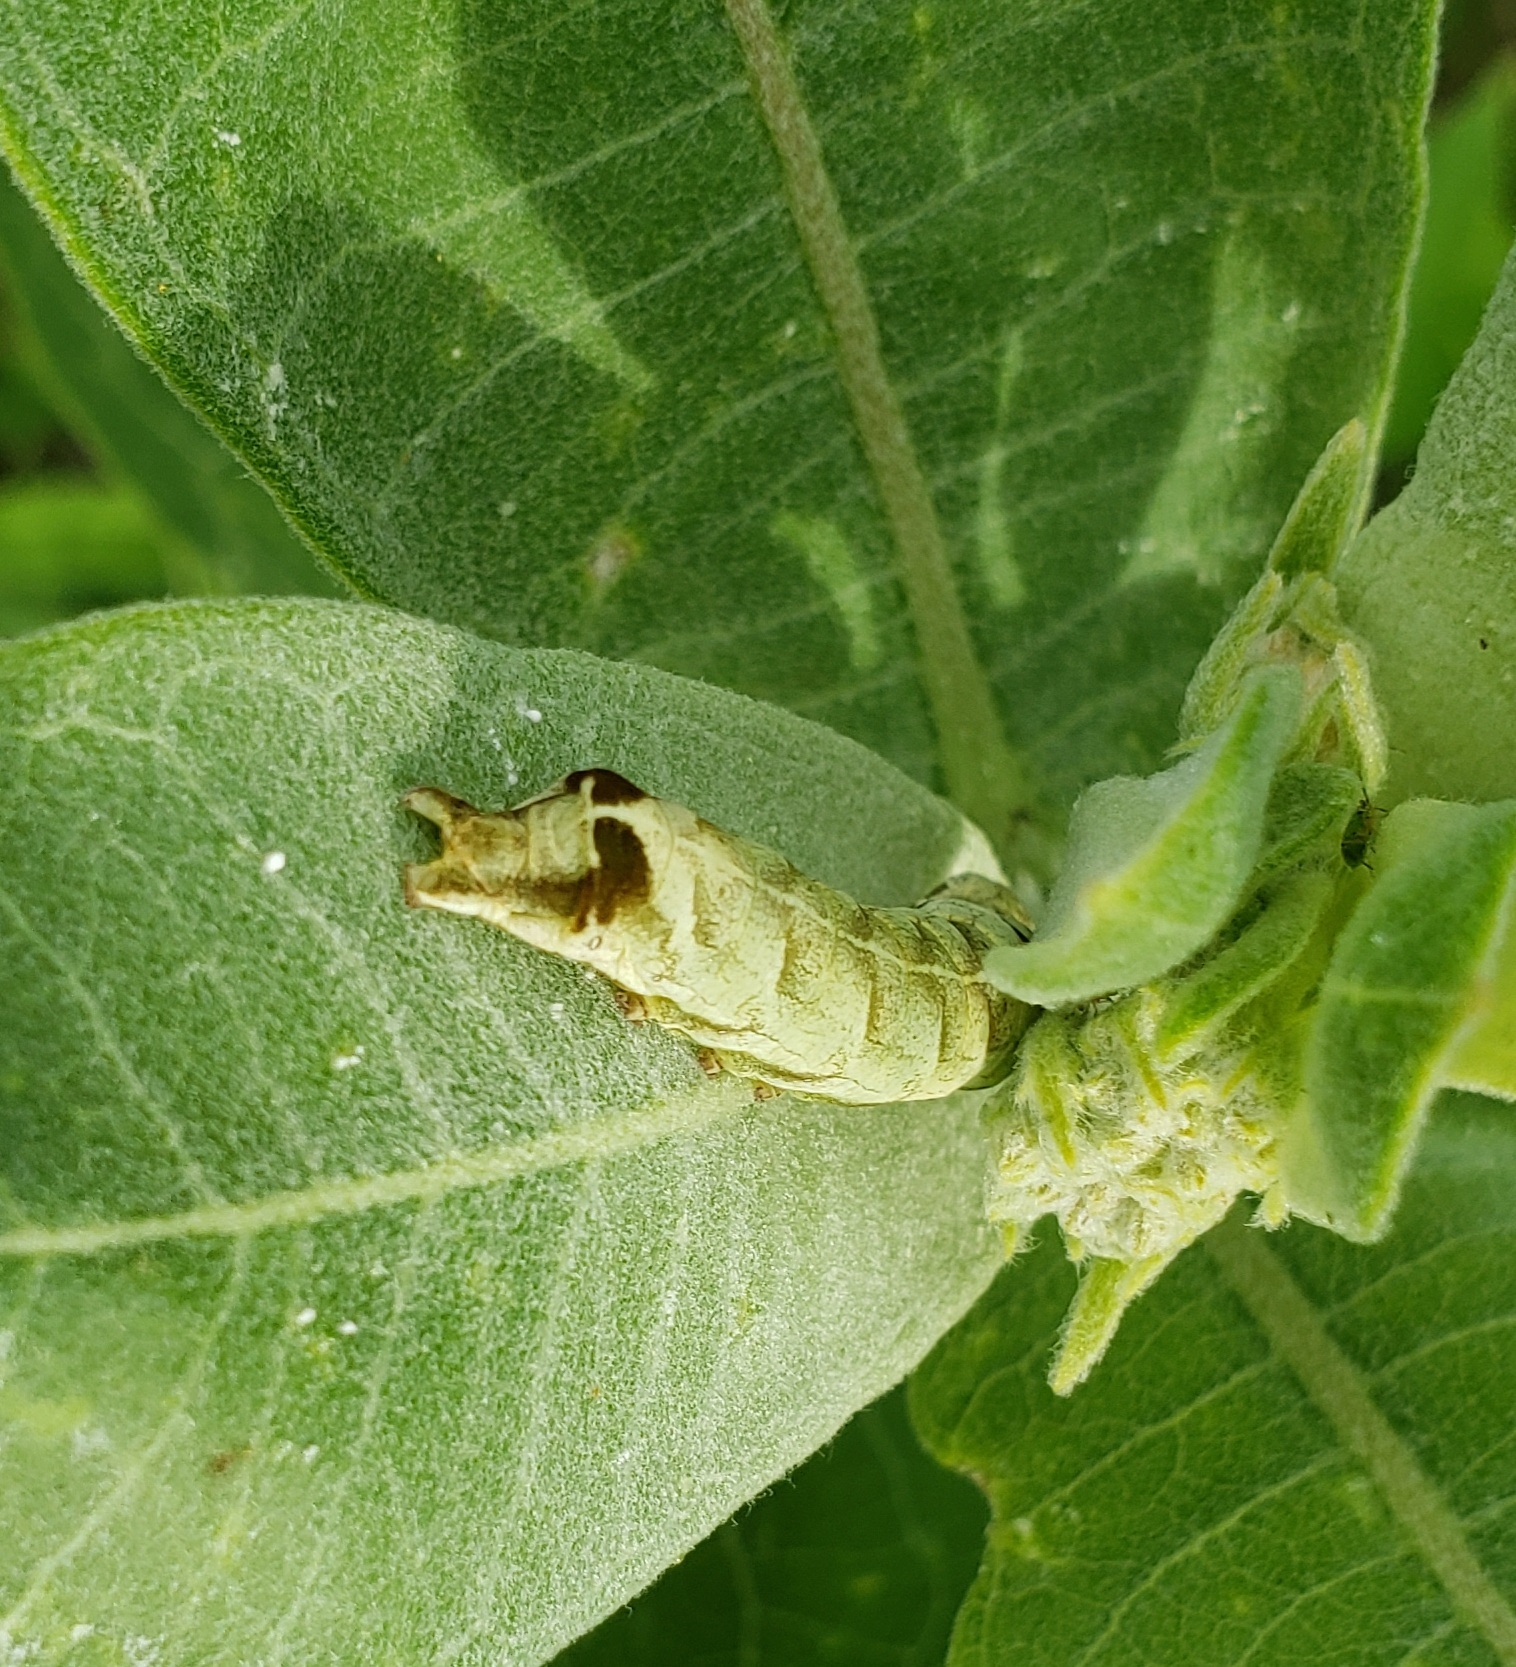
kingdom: Animalia
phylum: Arthropoda
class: Insecta
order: Lepidoptera
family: Noctuidae
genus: Melanchra
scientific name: Melanchra adjuncta
